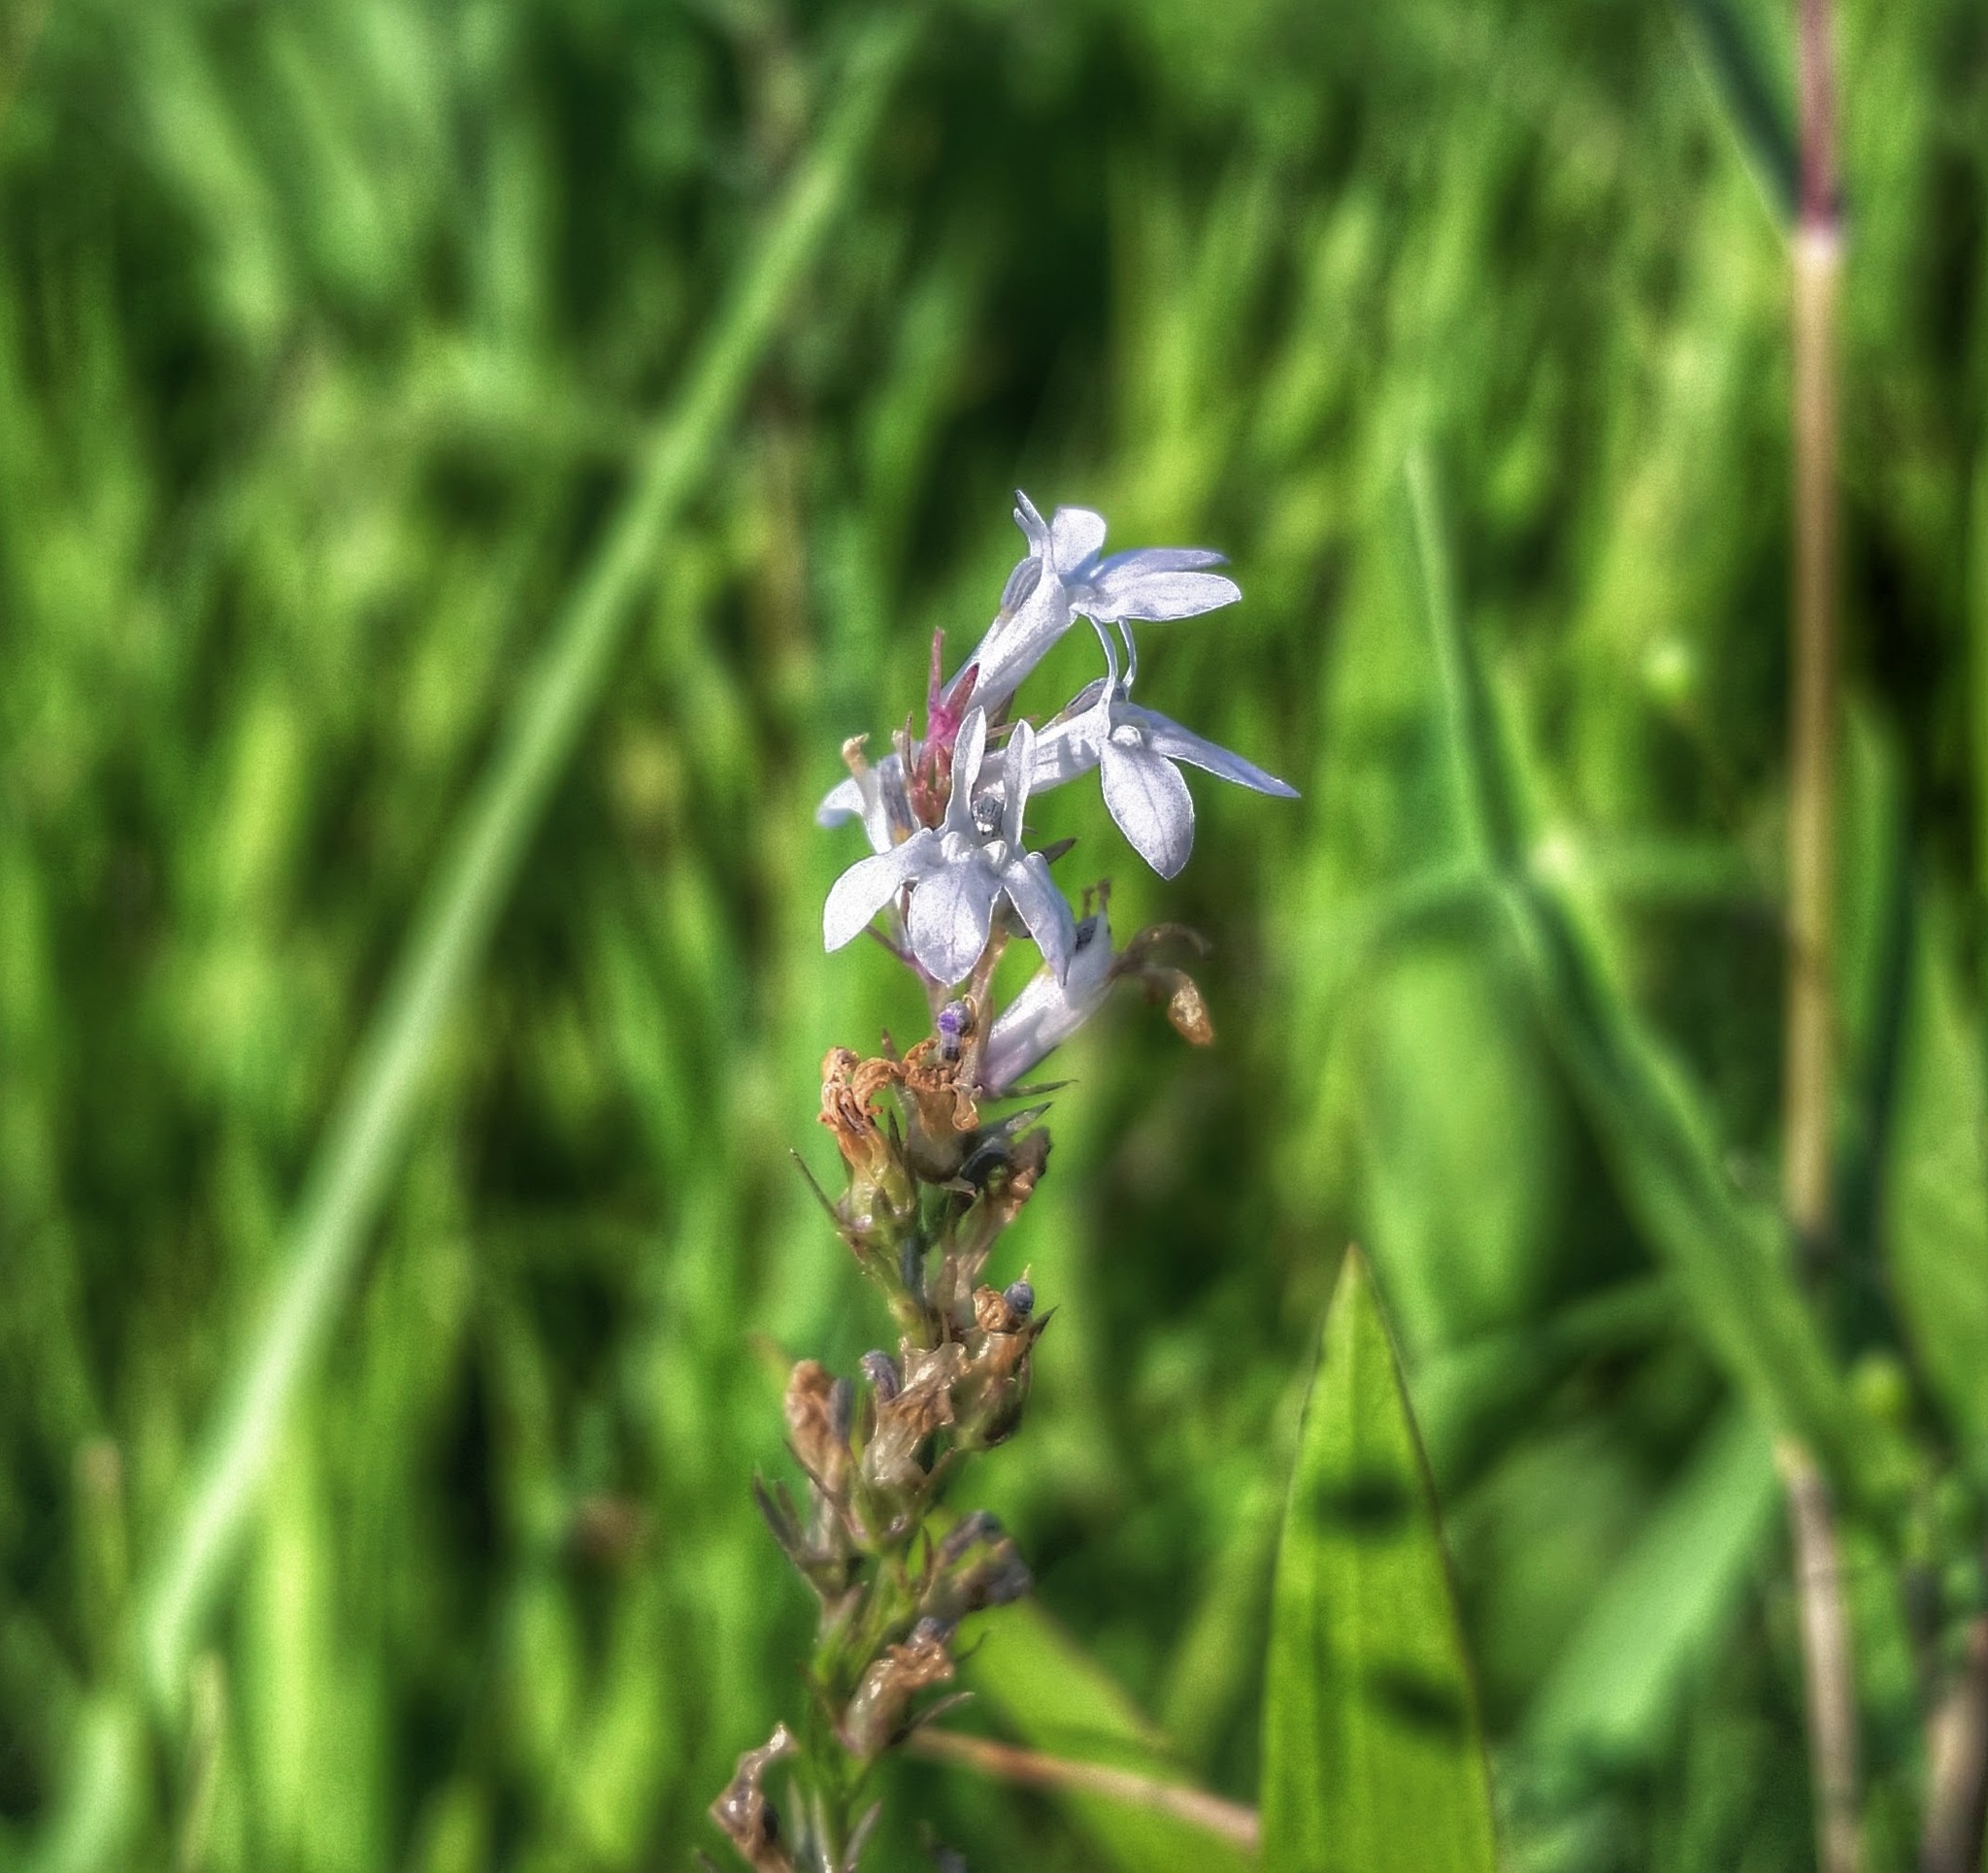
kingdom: Plantae
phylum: Tracheophyta
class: Magnoliopsida
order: Asterales
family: Campanulaceae
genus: Lobelia
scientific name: Lobelia spicata
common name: Pale-spike lobelia
